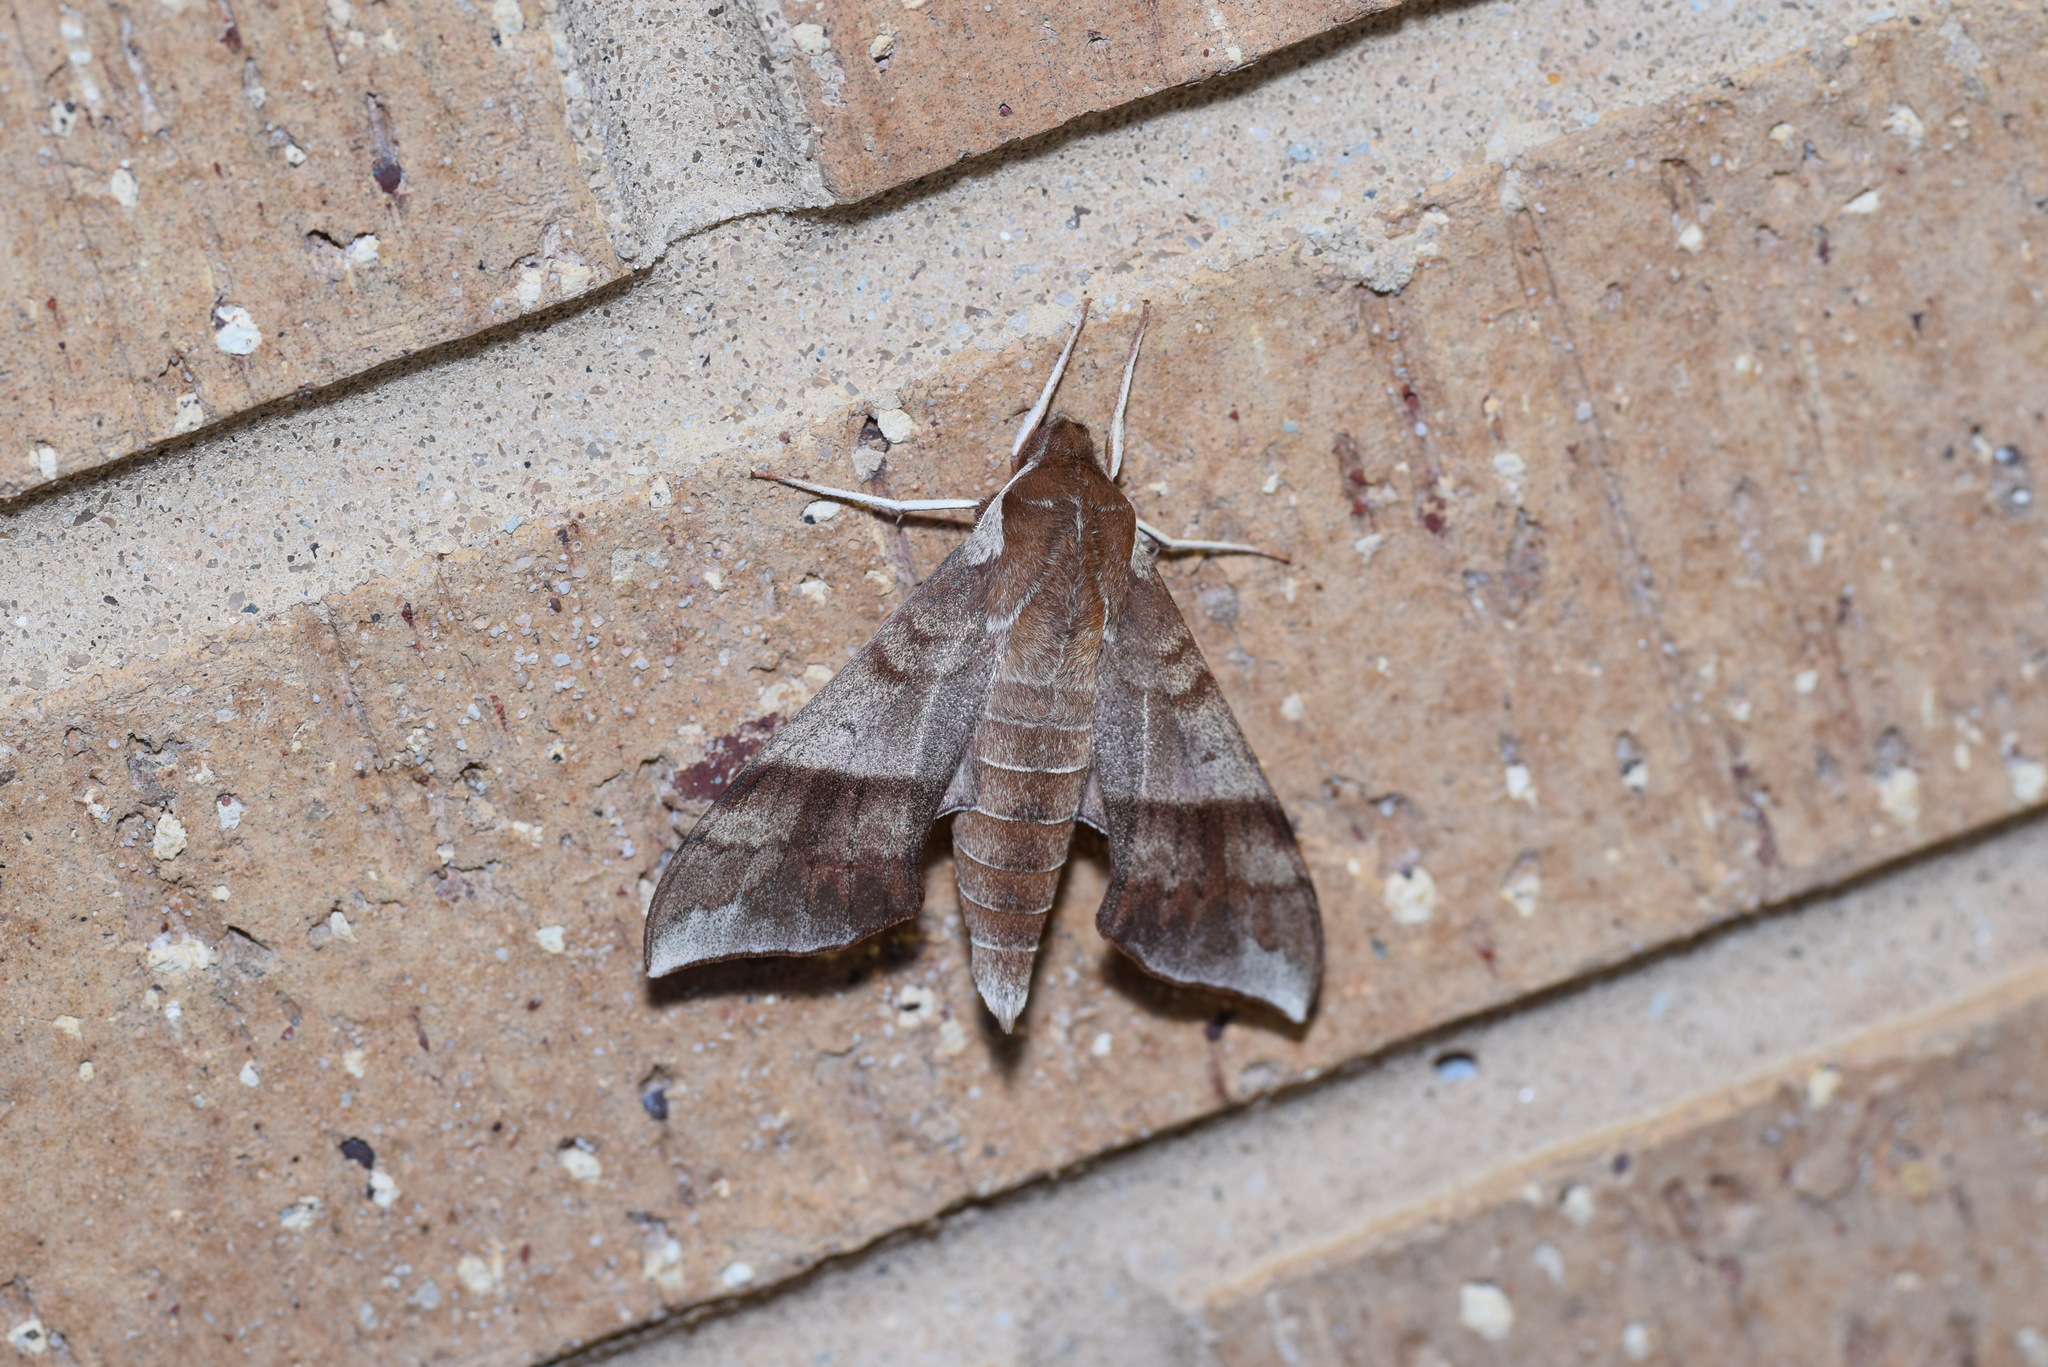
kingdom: Animalia
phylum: Arthropoda
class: Insecta
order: Lepidoptera
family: Sphingidae
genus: Darapsa
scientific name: Darapsa choerilus
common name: Azalea sphinx
